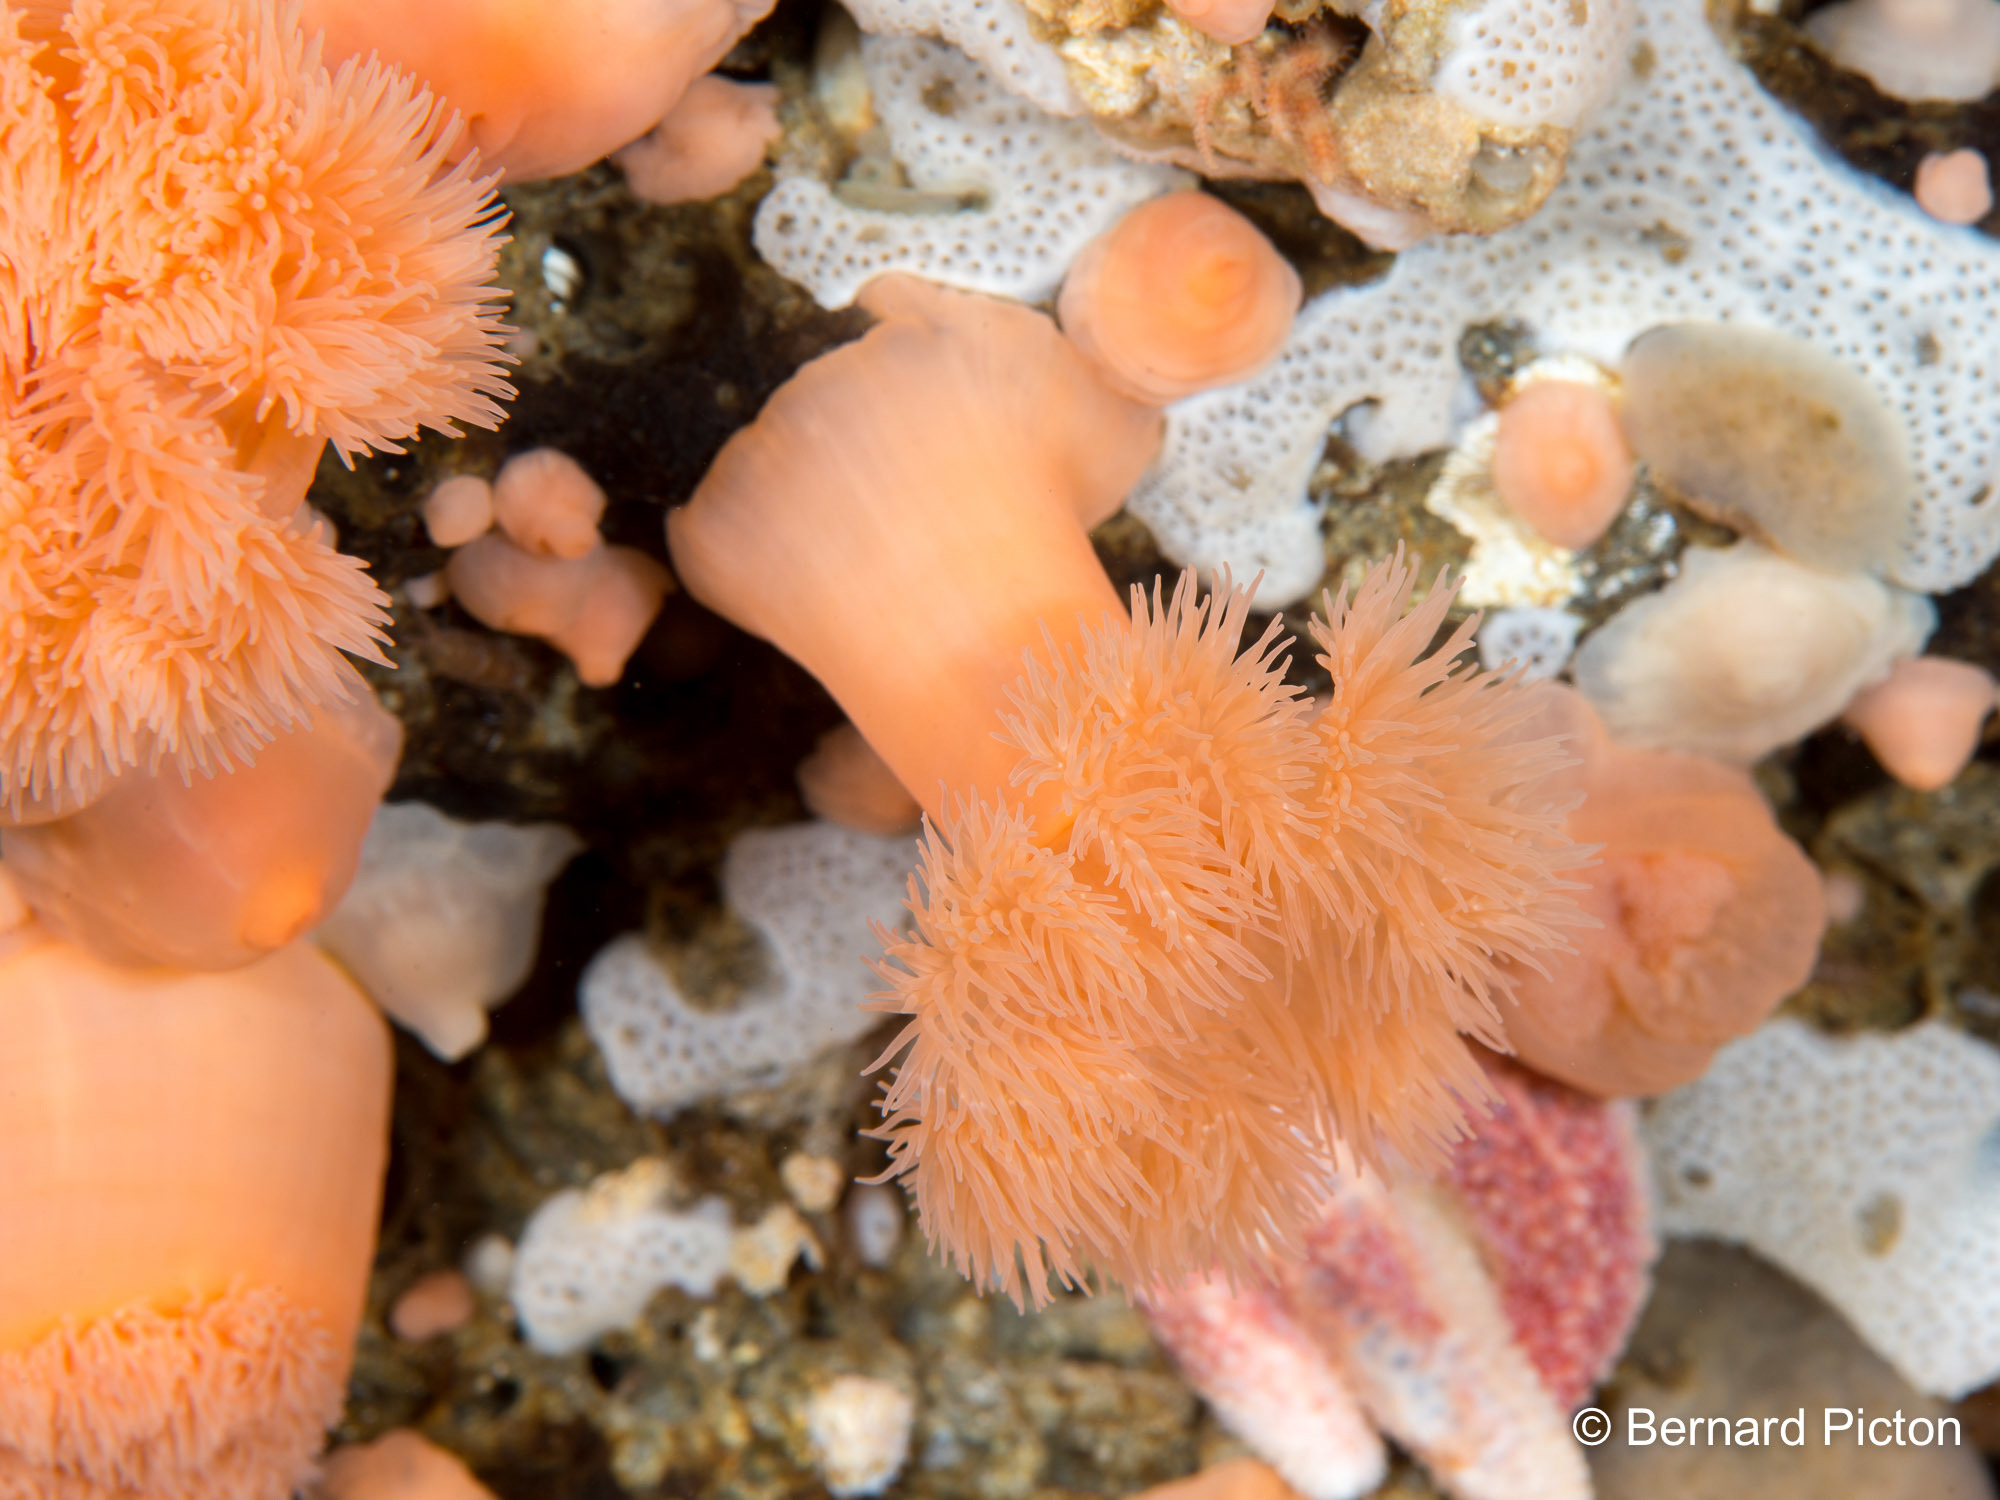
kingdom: Animalia
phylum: Cnidaria
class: Anthozoa
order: Actiniaria
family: Metridiidae
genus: Metridium
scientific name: Metridium senile
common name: Clonal plumose anemone
